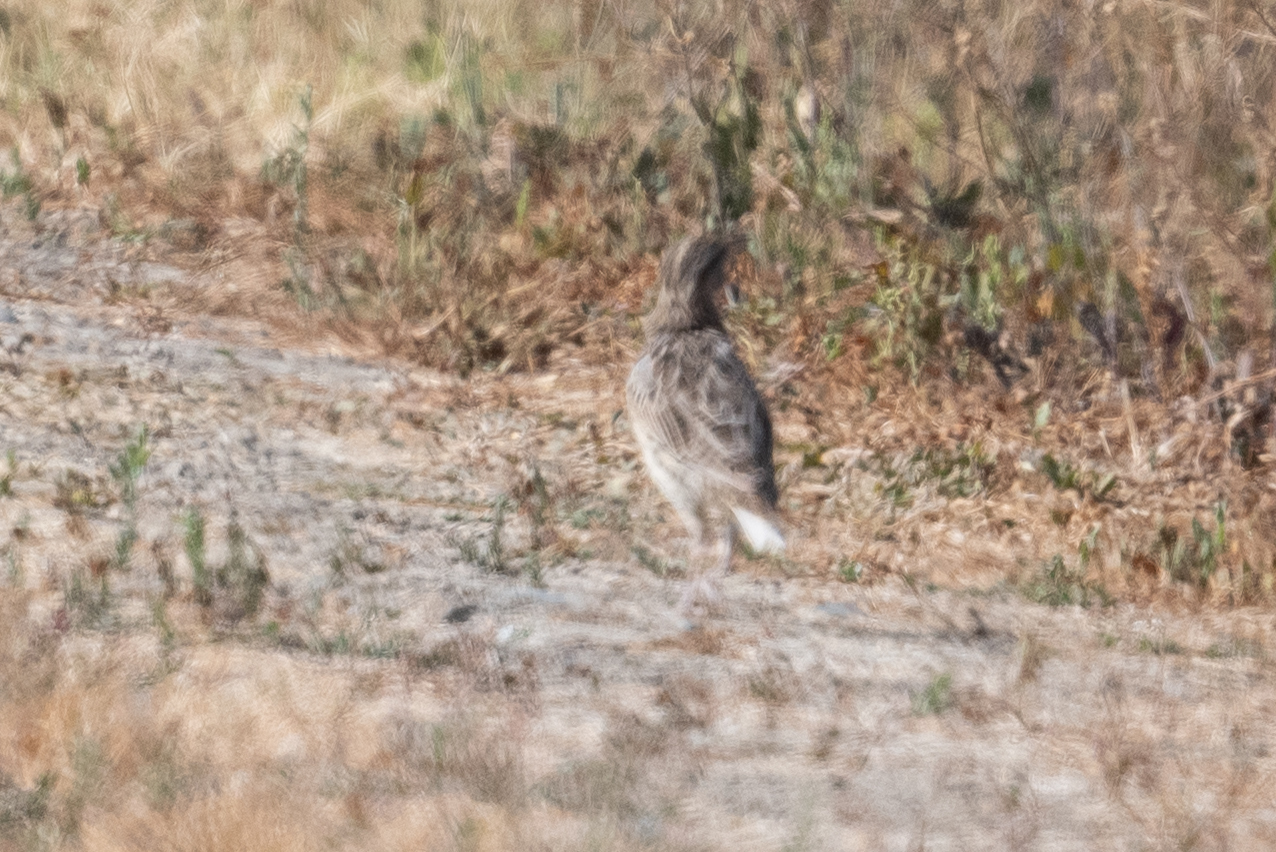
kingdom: Animalia
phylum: Chordata
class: Aves
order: Passeriformes
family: Icteridae
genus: Sturnella
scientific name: Sturnella neglecta
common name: Western meadowlark
